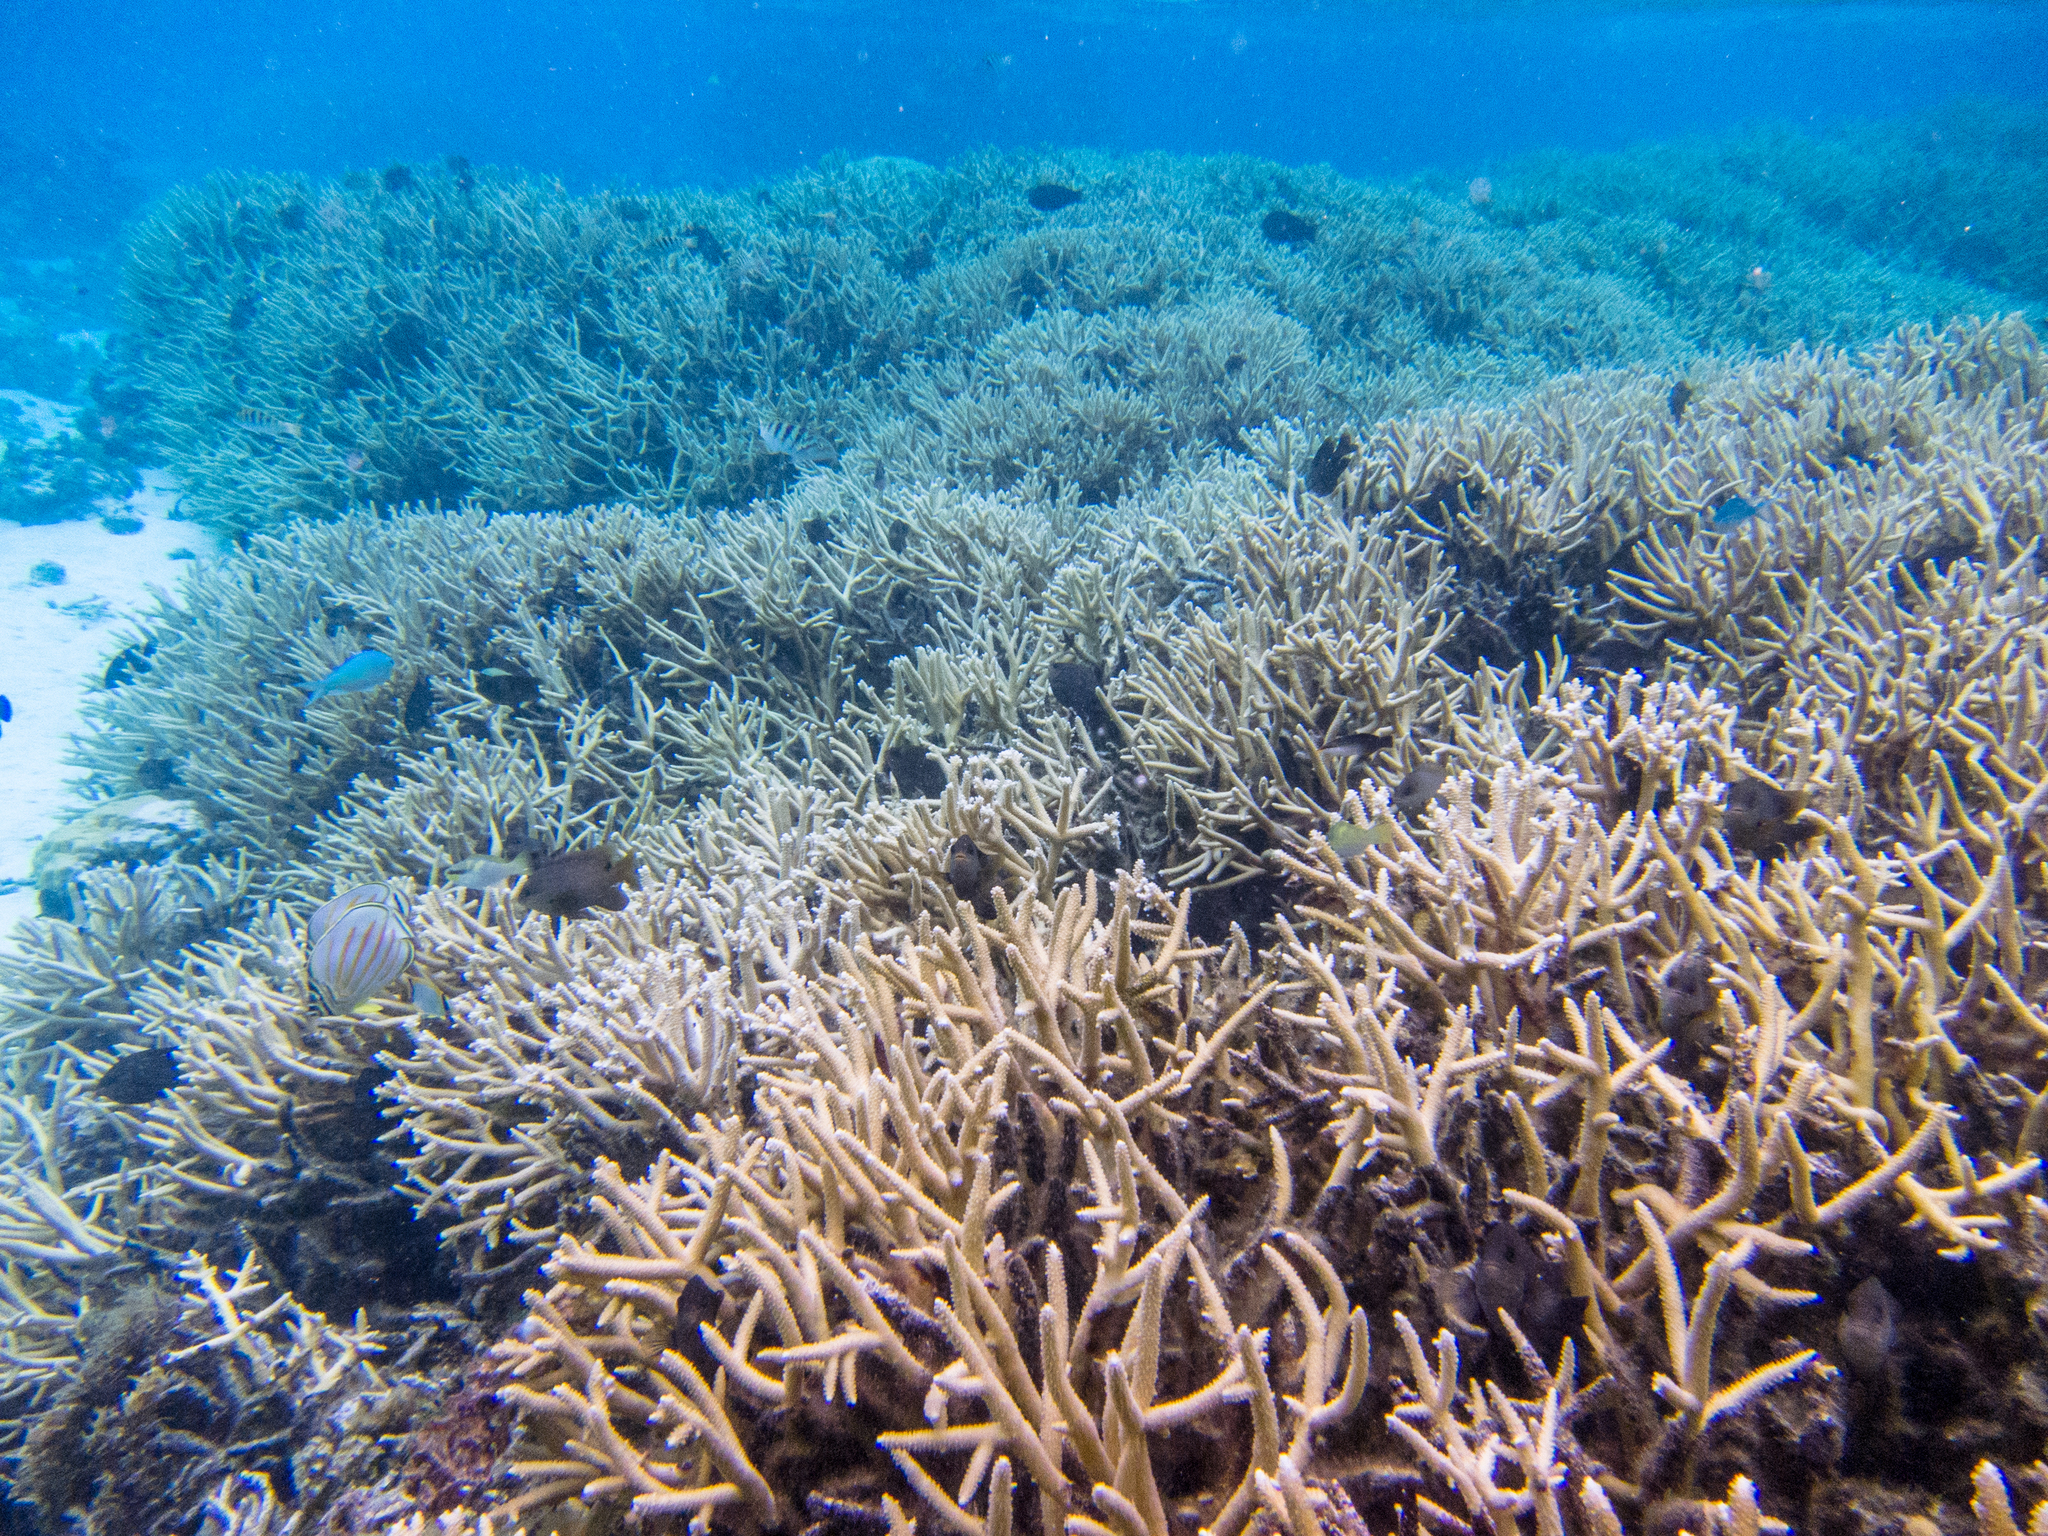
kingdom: Animalia
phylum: Chordata
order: Perciformes
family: Chaetodontidae
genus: Chaetodon
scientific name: Chaetodon ornatissimus
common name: Ornate butterflyfish
